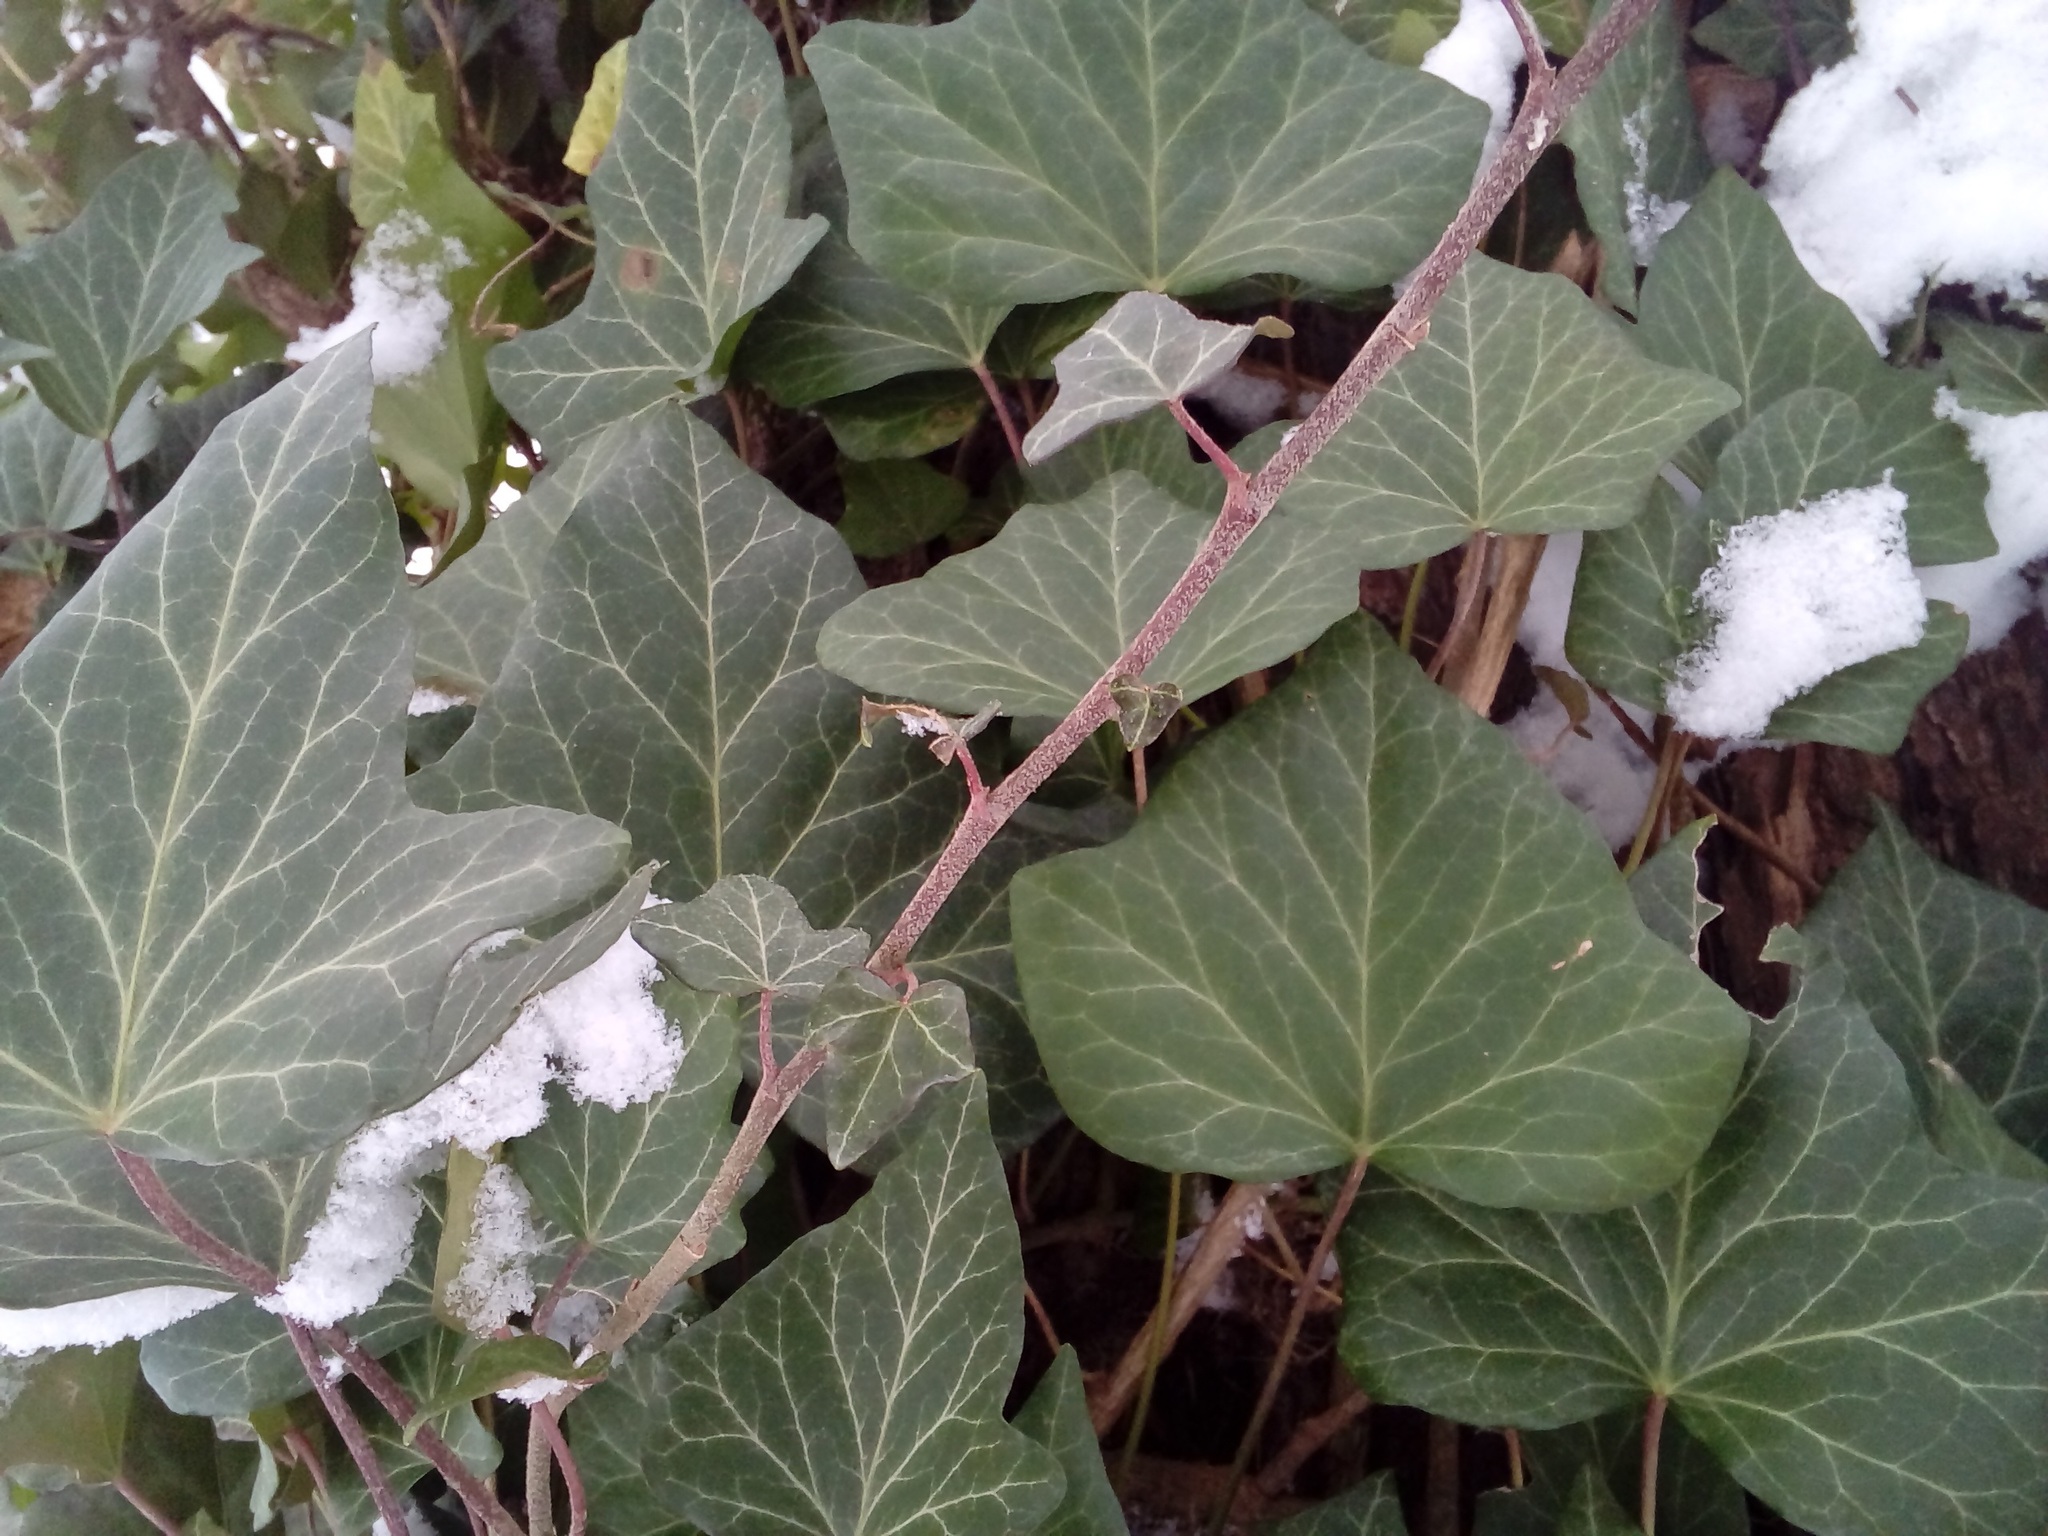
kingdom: Plantae
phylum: Tracheophyta
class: Magnoliopsida
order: Apiales
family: Araliaceae
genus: Hedera
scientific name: Hedera helix
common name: Ivy
